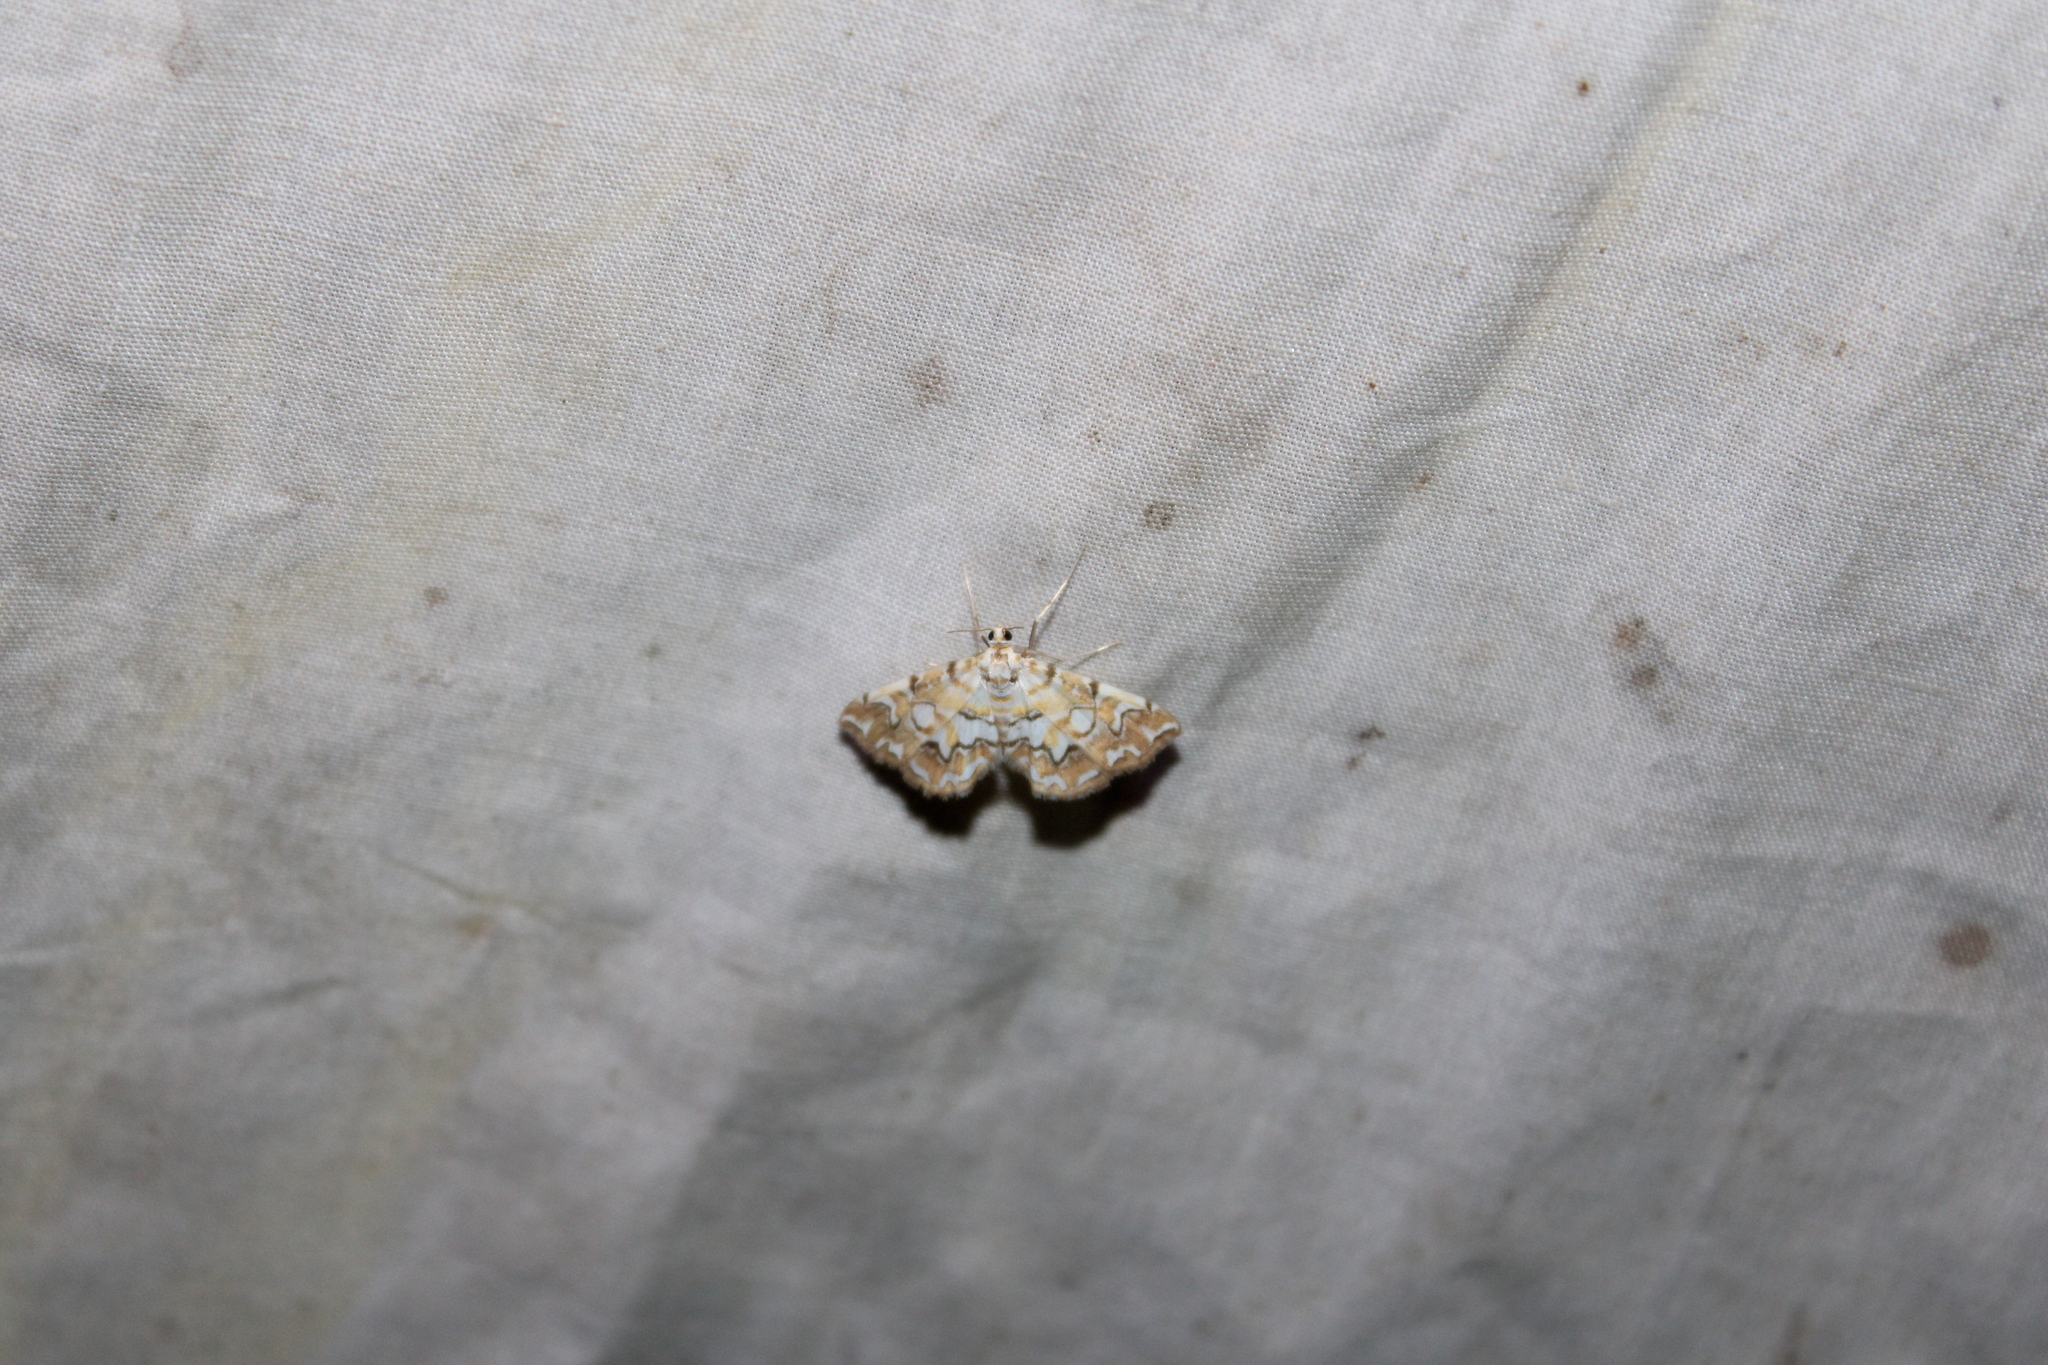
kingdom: Animalia
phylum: Arthropoda
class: Insecta
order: Lepidoptera
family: Crambidae
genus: Elophila
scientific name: Elophila icciusalis
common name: Pondside pyralid moth
